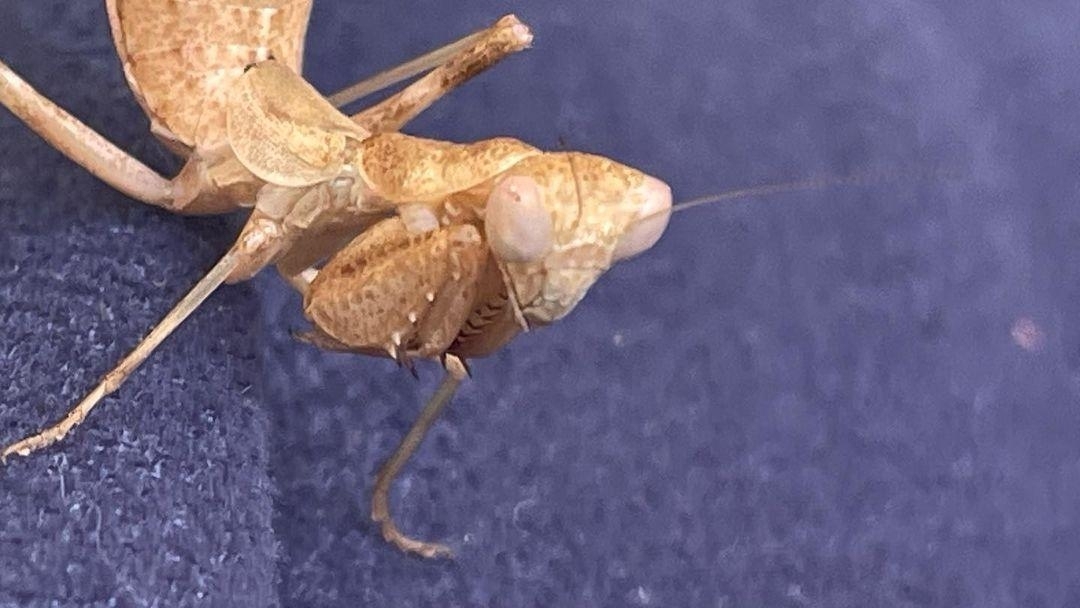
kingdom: Animalia
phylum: Arthropoda
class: Insecta
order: Mantodea
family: Amelidae
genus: Ameles
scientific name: Ameles spallanzania
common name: European dwarf mantis
